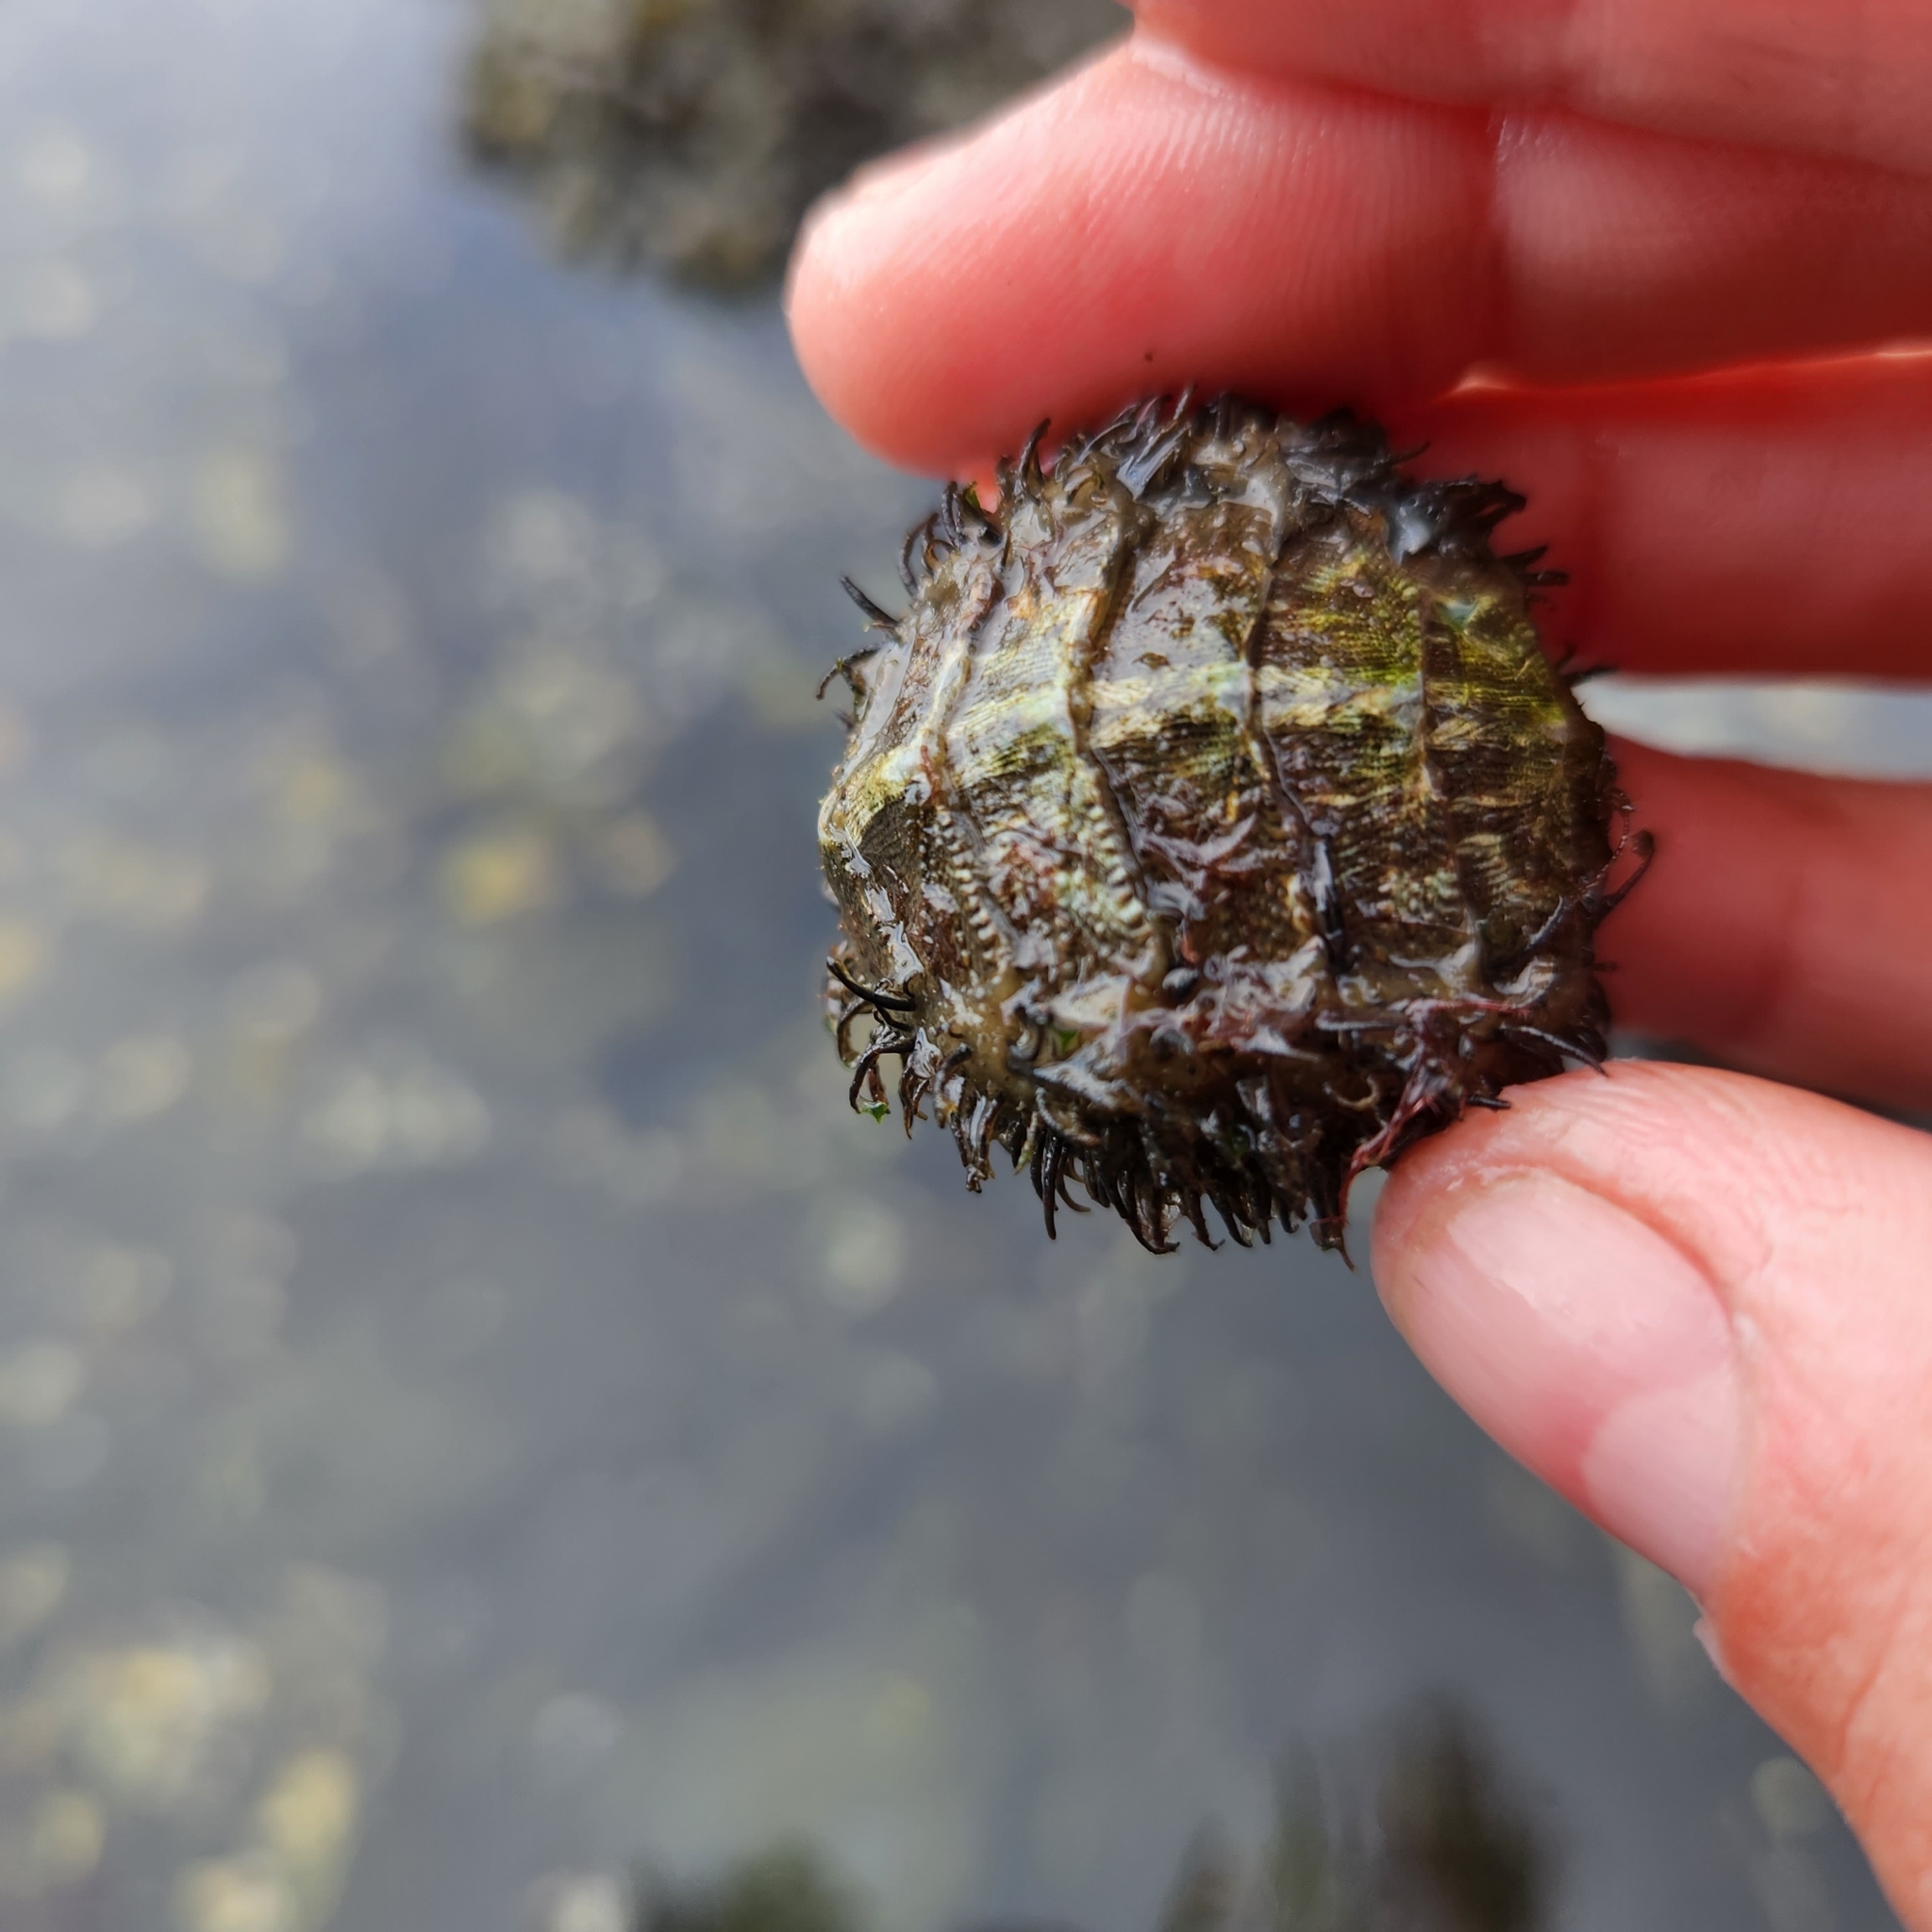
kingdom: Animalia
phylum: Mollusca
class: Polyplacophora
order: Chitonida
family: Mopaliidae
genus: Mopalia
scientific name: Mopalia muscosa
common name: Mossy chiton
